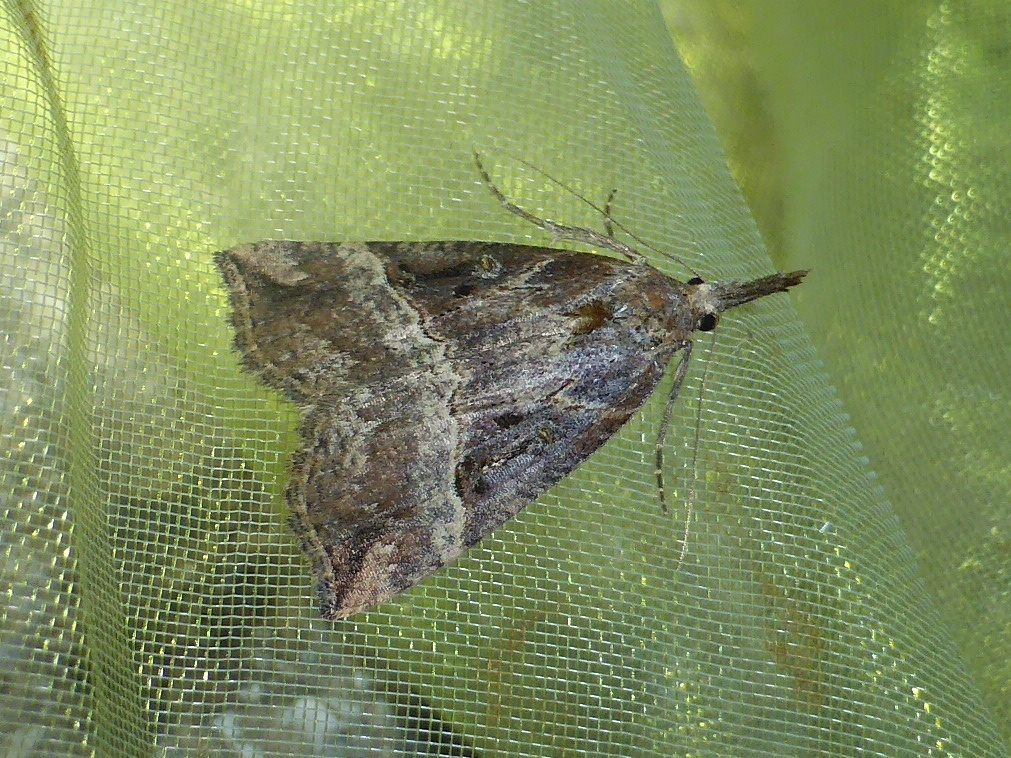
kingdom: Animalia
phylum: Arthropoda
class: Insecta
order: Lepidoptera
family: Erebidae
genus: Hypena
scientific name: Hypena rostralis
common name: Buttoned snout
